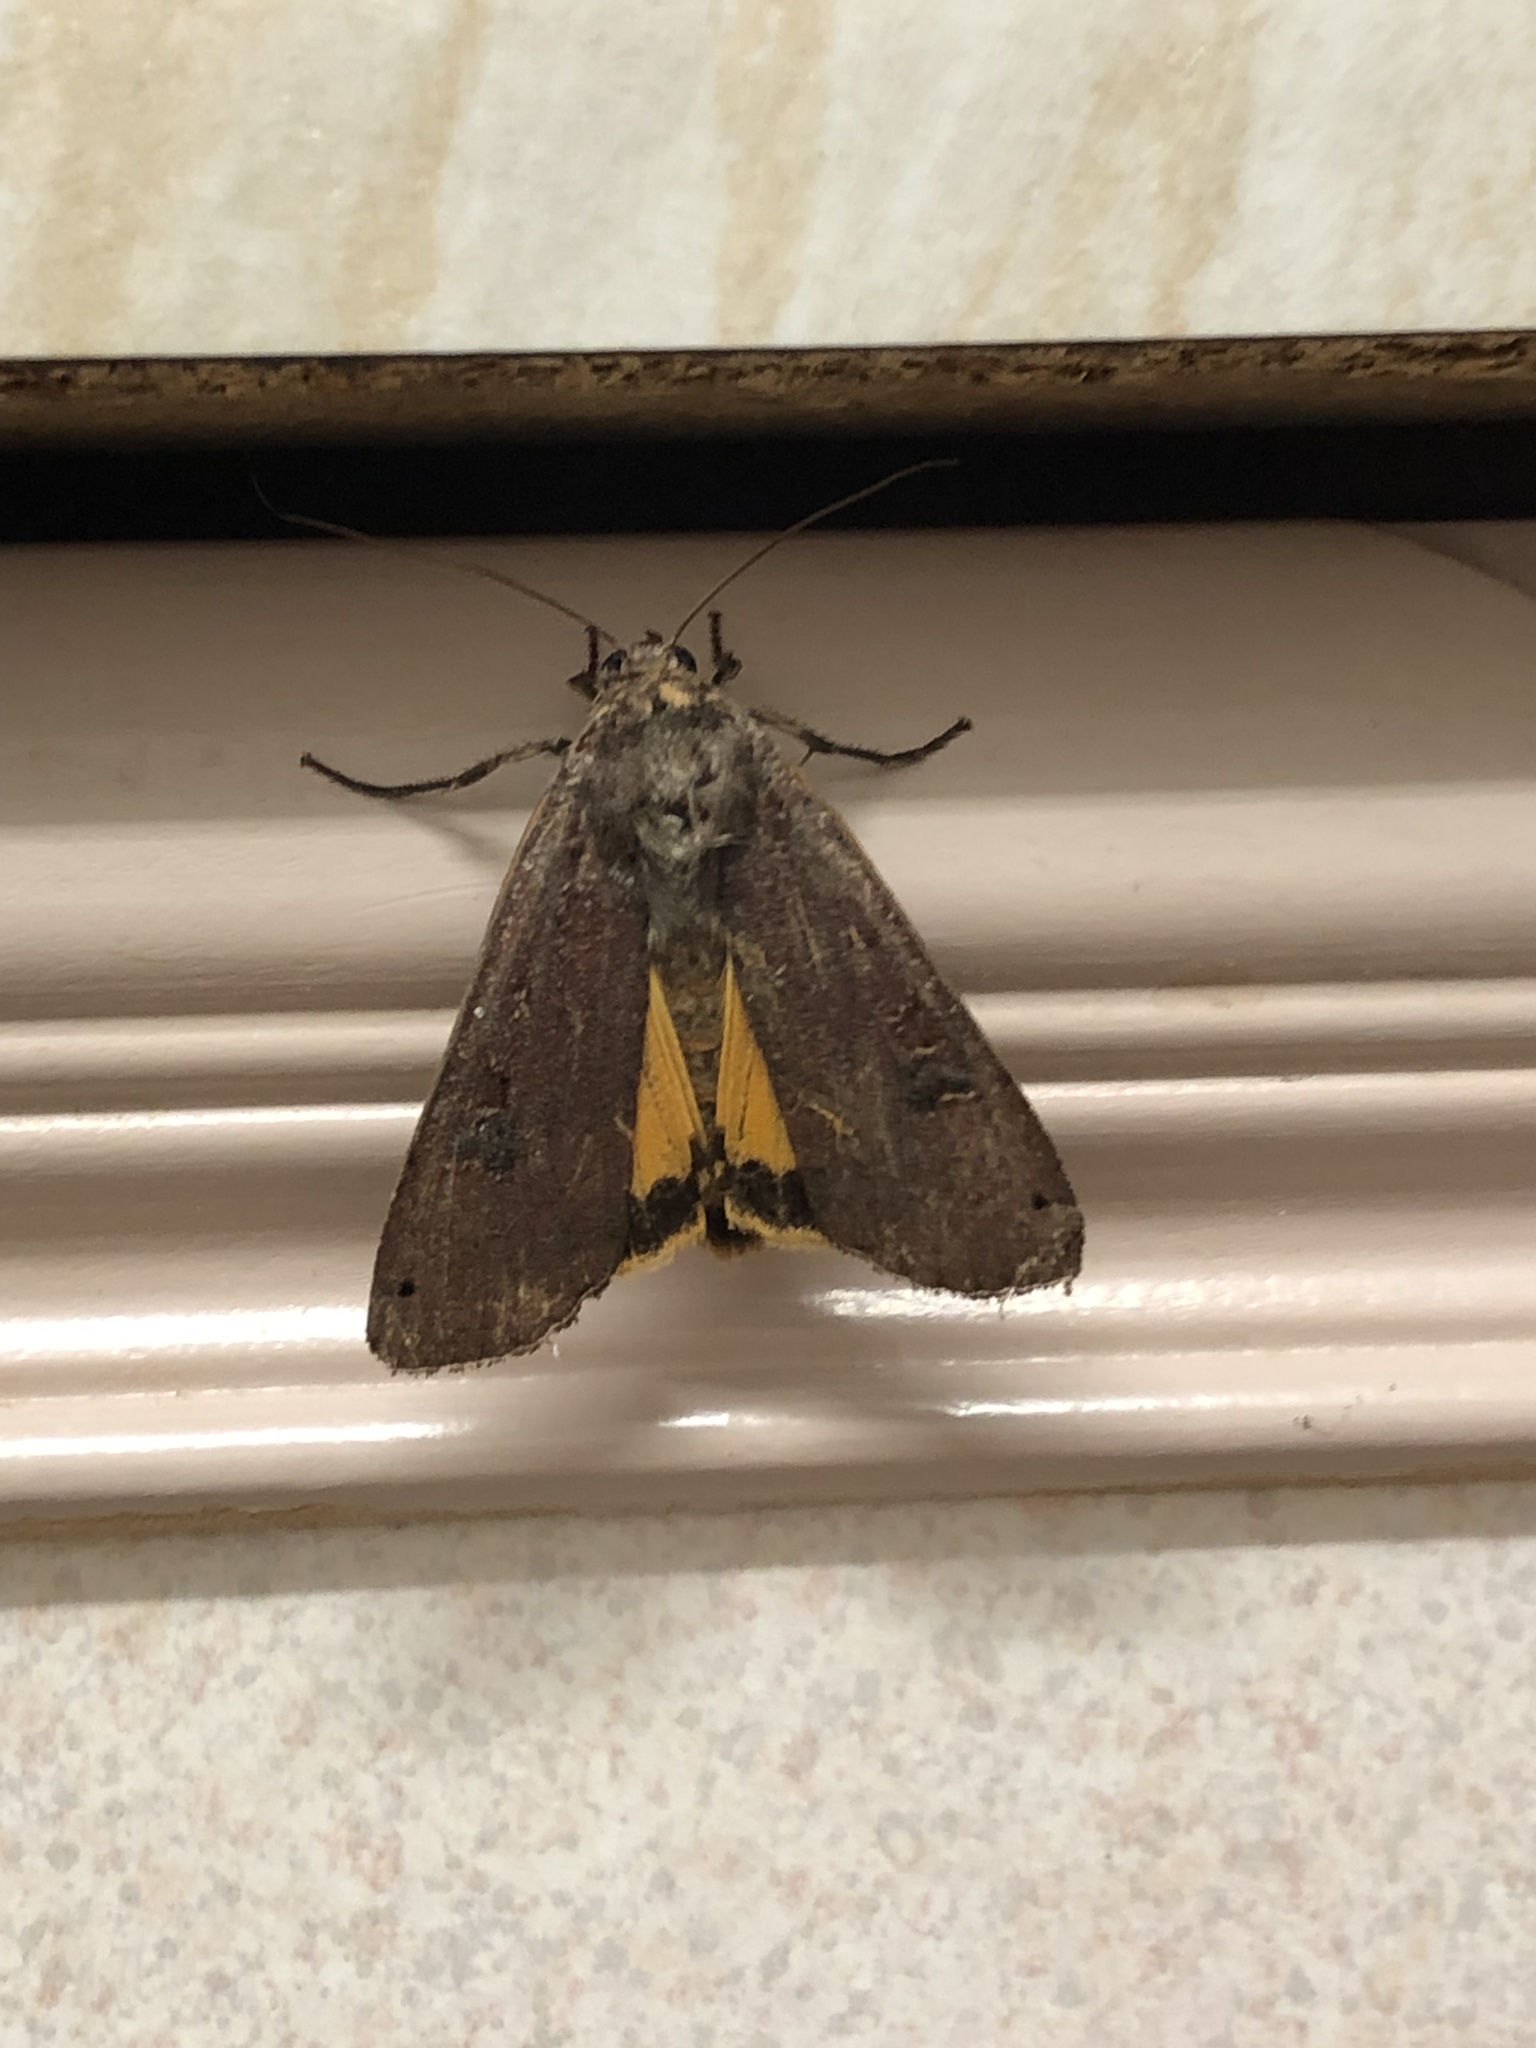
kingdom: Animalia
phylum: Arthropoda
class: Insecta
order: Lepidoptera
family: Noctuidae
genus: Noctua
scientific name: Noctua pronuba
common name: Large yellow underwing
